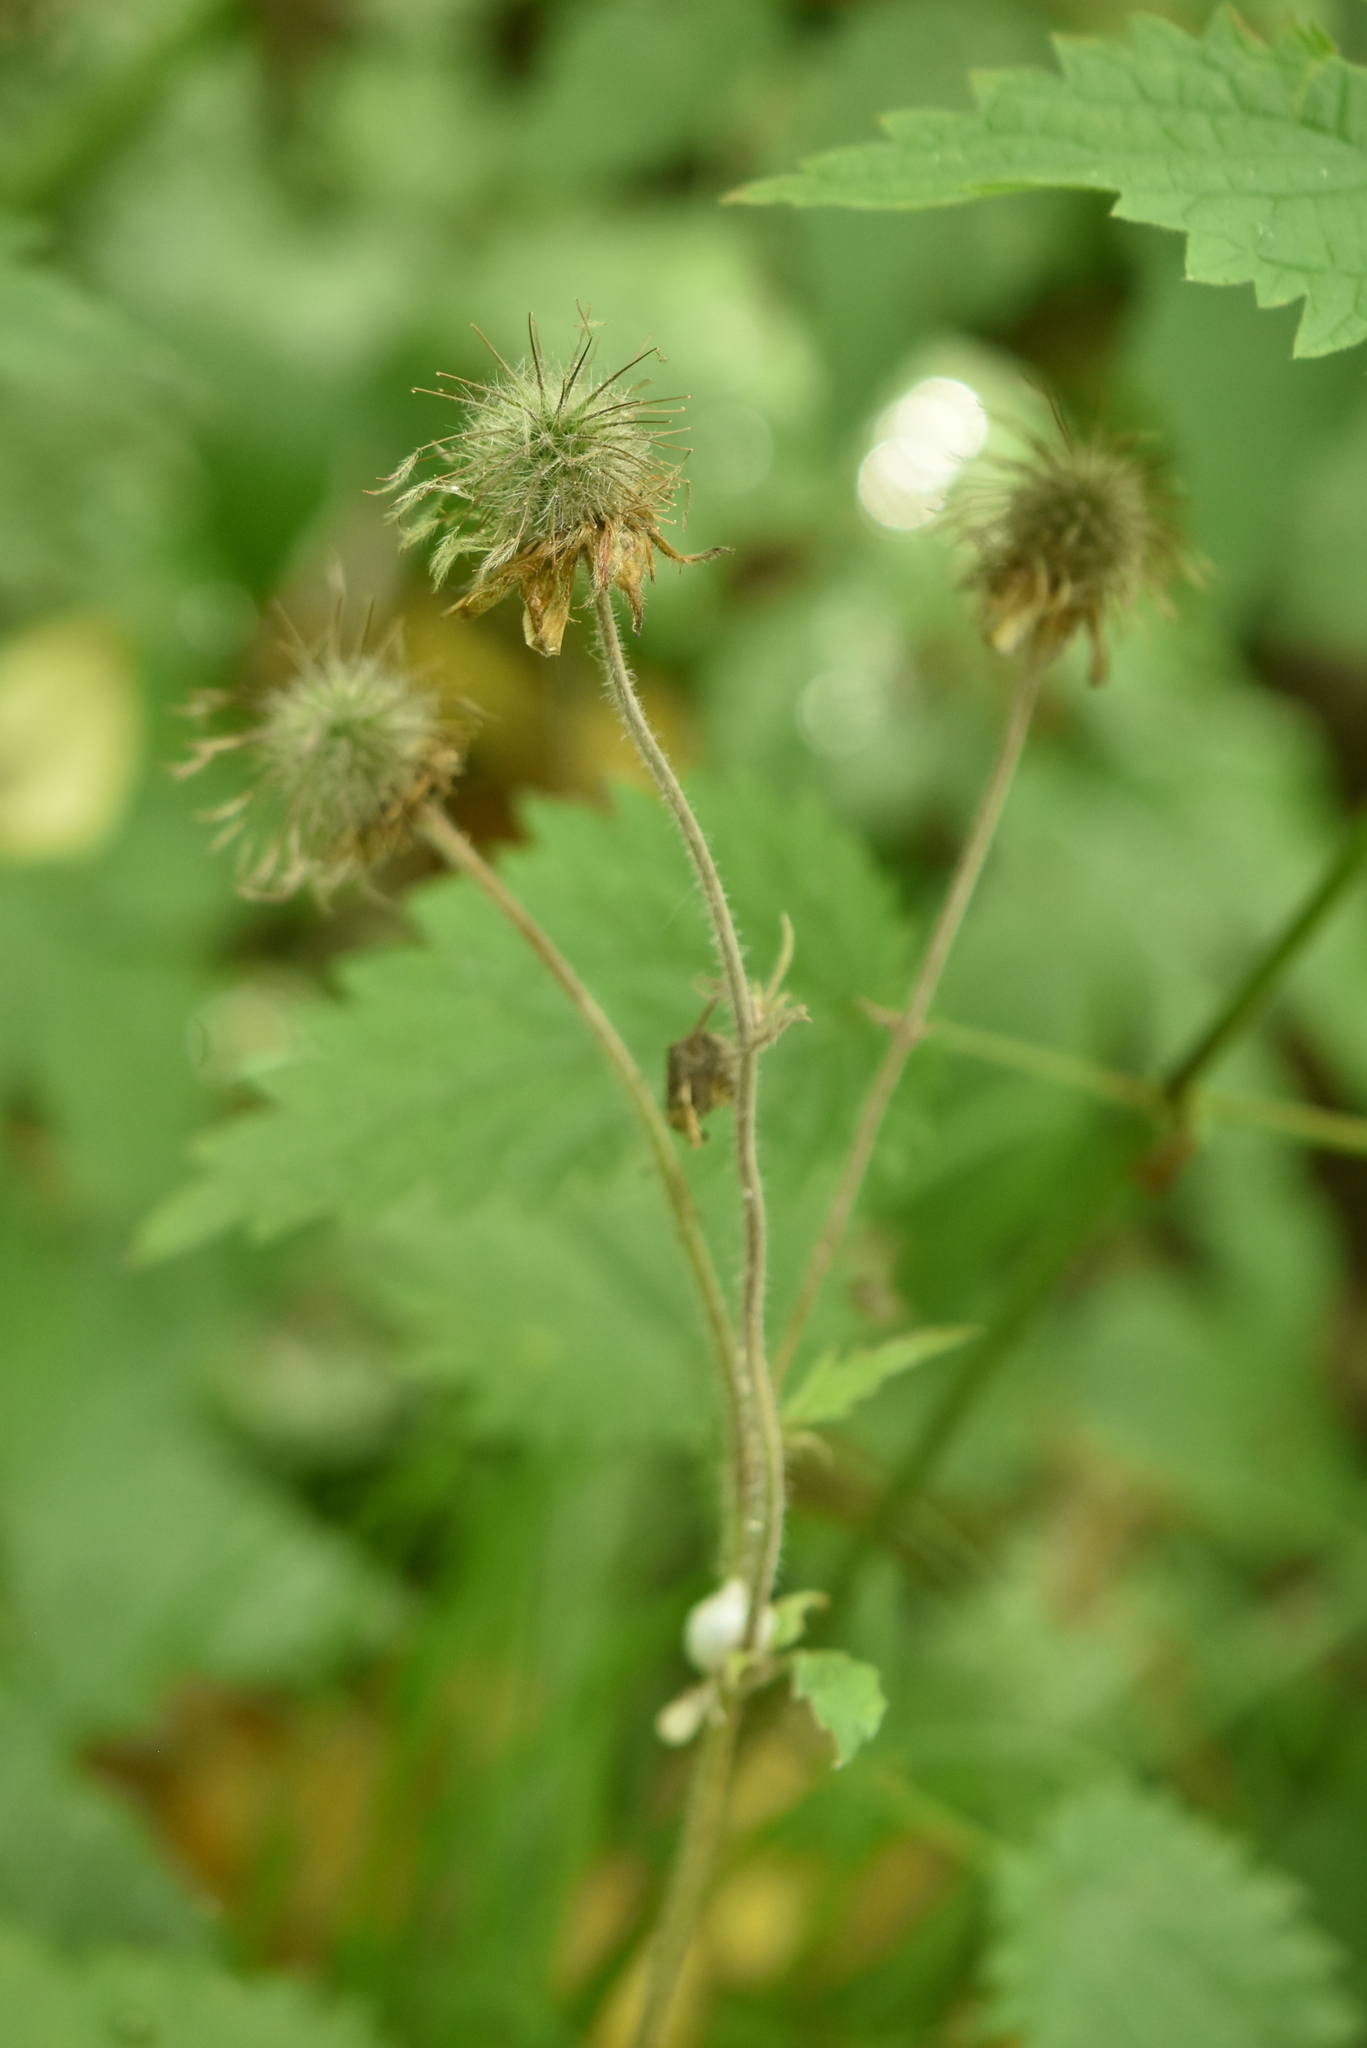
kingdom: Plantae
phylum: Tracheophyta
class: Magnoliopsida
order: Rosales
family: Rosaceae
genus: Geum
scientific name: Geum rivale
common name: Water avens
